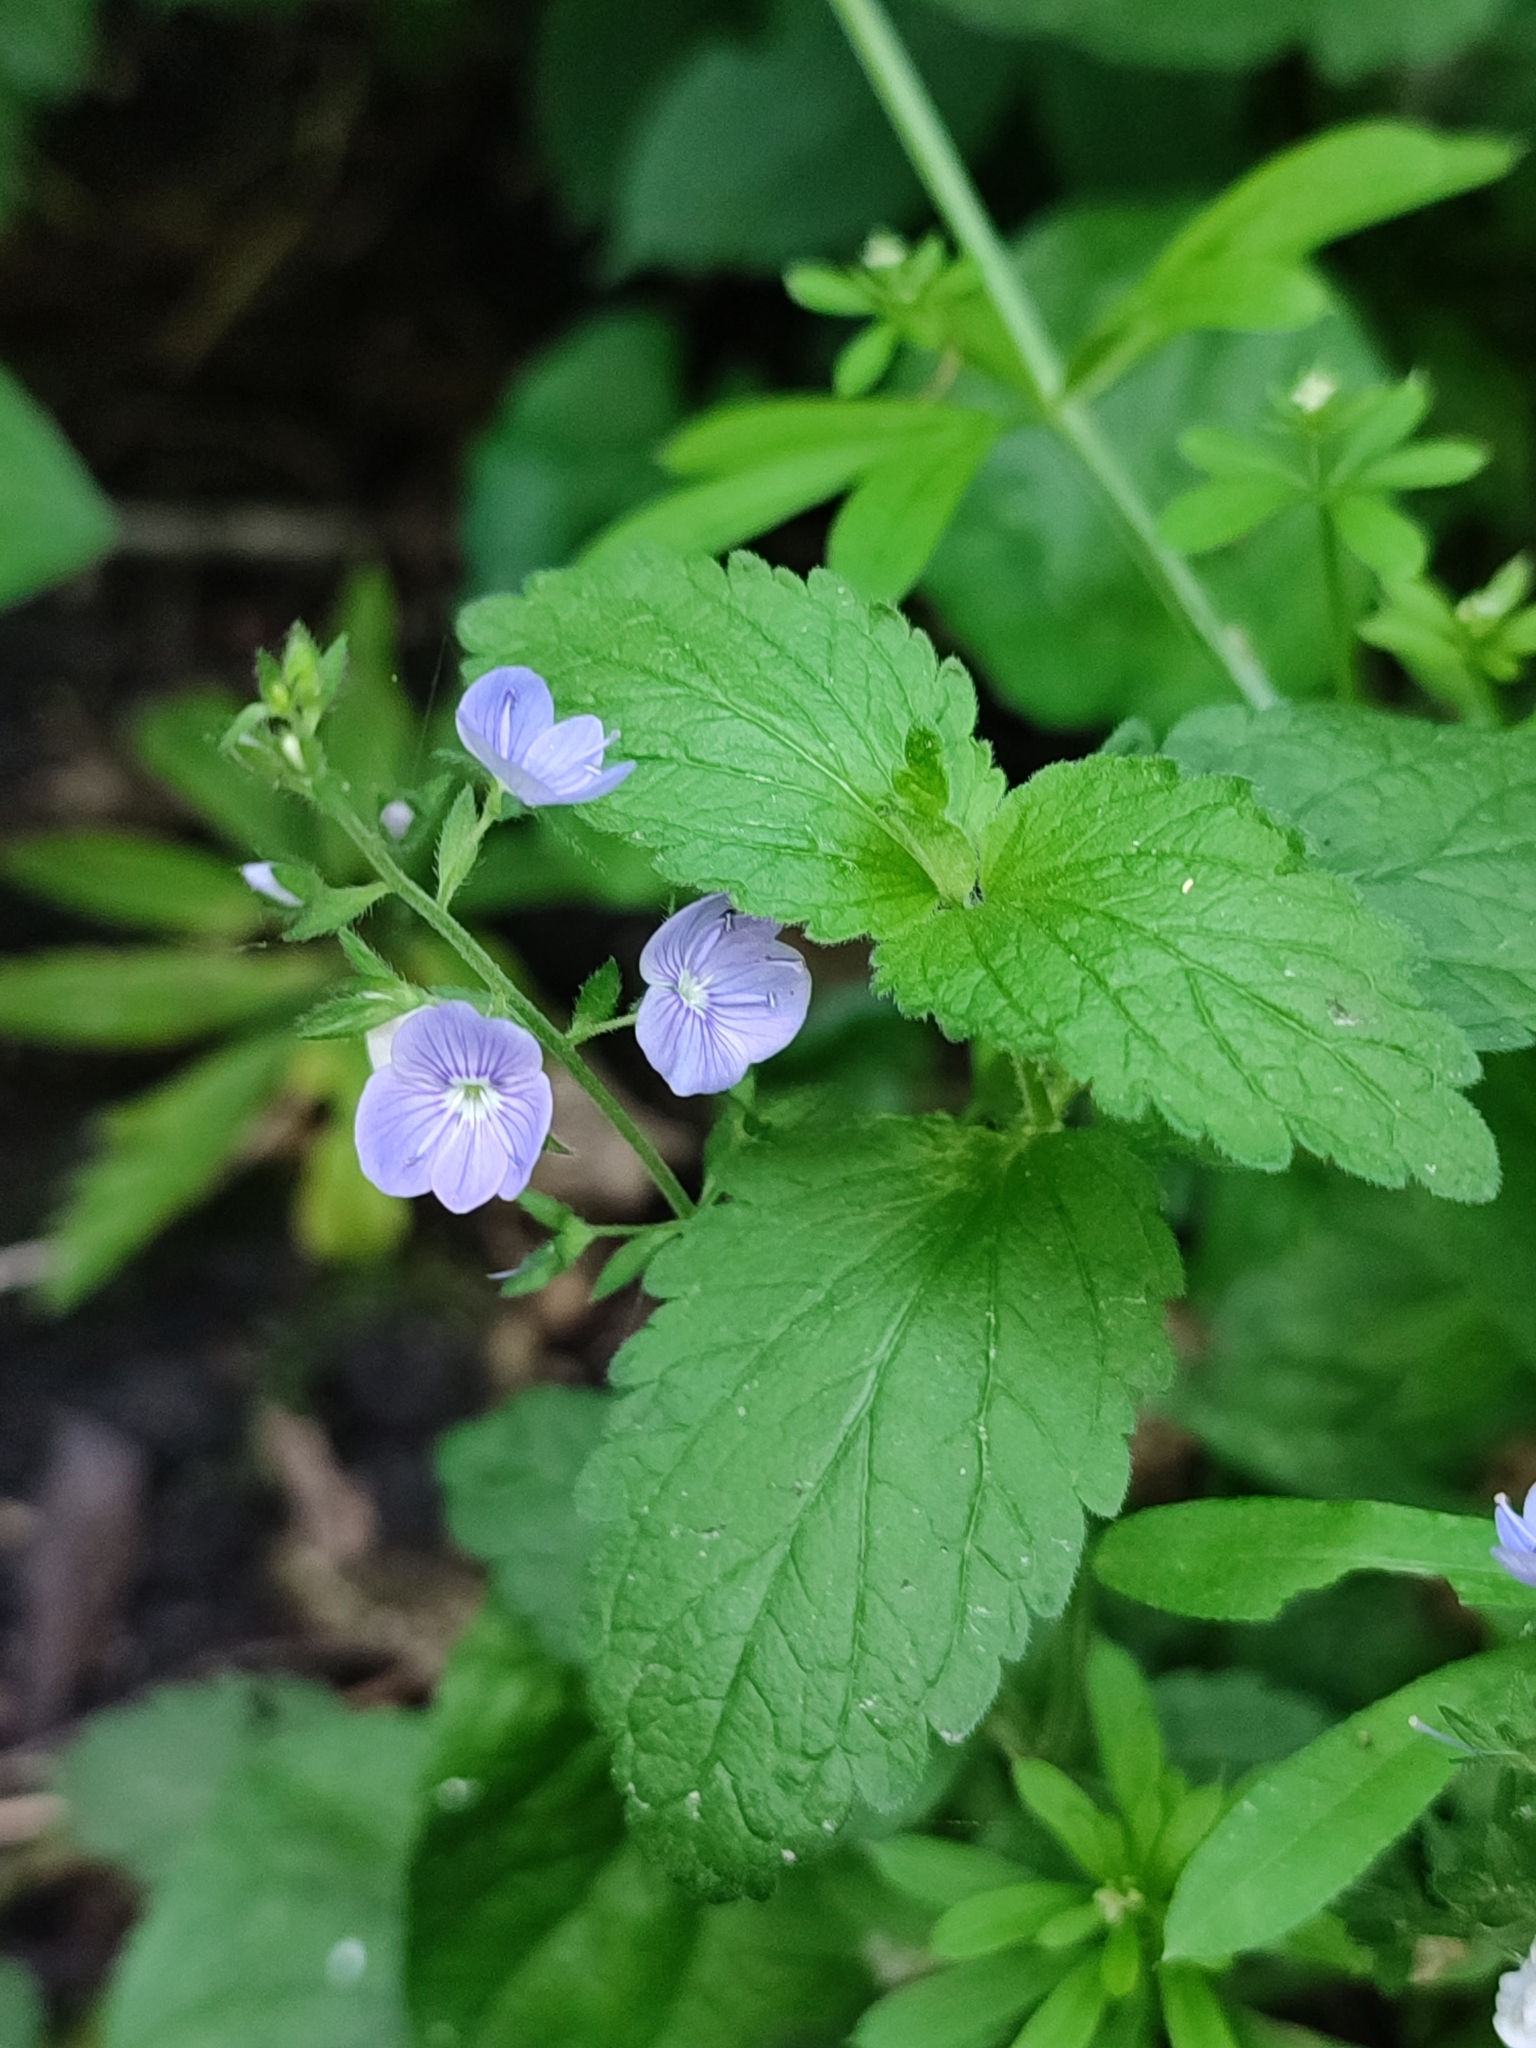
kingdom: Plantae
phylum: Tracheophyta
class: Magnoliopsida
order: Lamiales
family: Plantaginaceae
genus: Veronica
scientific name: Veronica chamaedrys
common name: Germander speedwell
